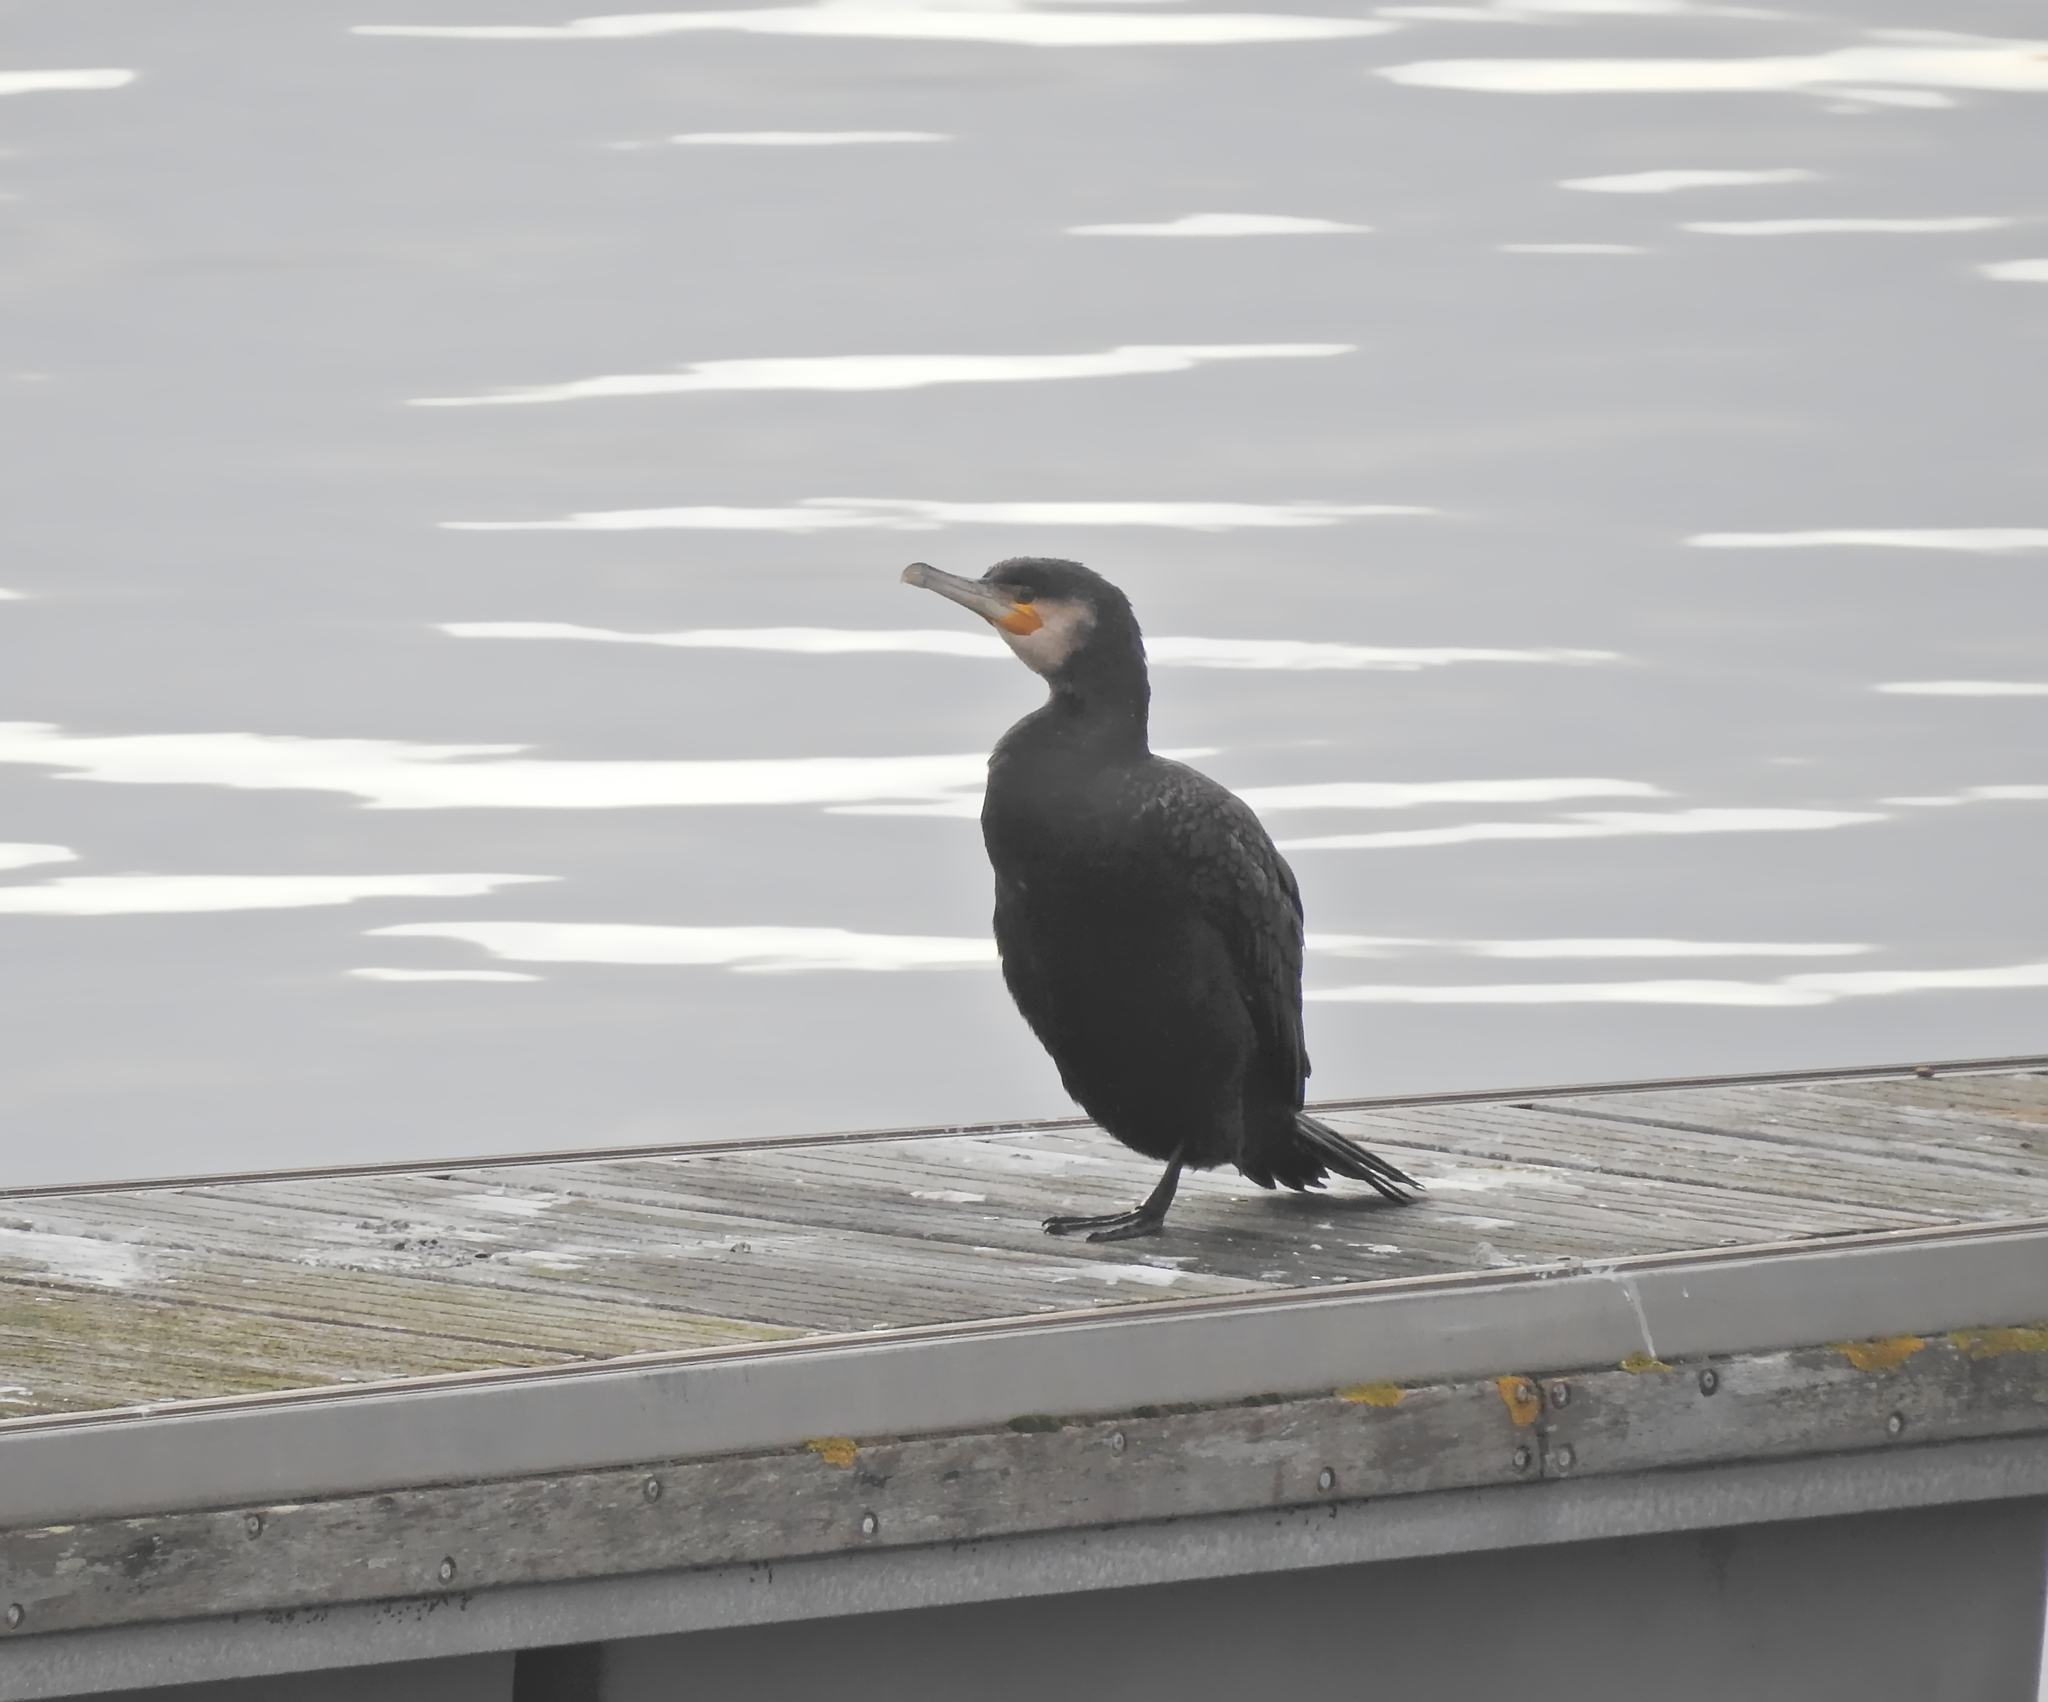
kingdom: Animalia
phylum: Chordata
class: Aves
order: Suliformes
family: Phalacrocoracidae
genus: Phalacrocorax
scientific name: Phalacrocorax carbo
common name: Great cormorant
